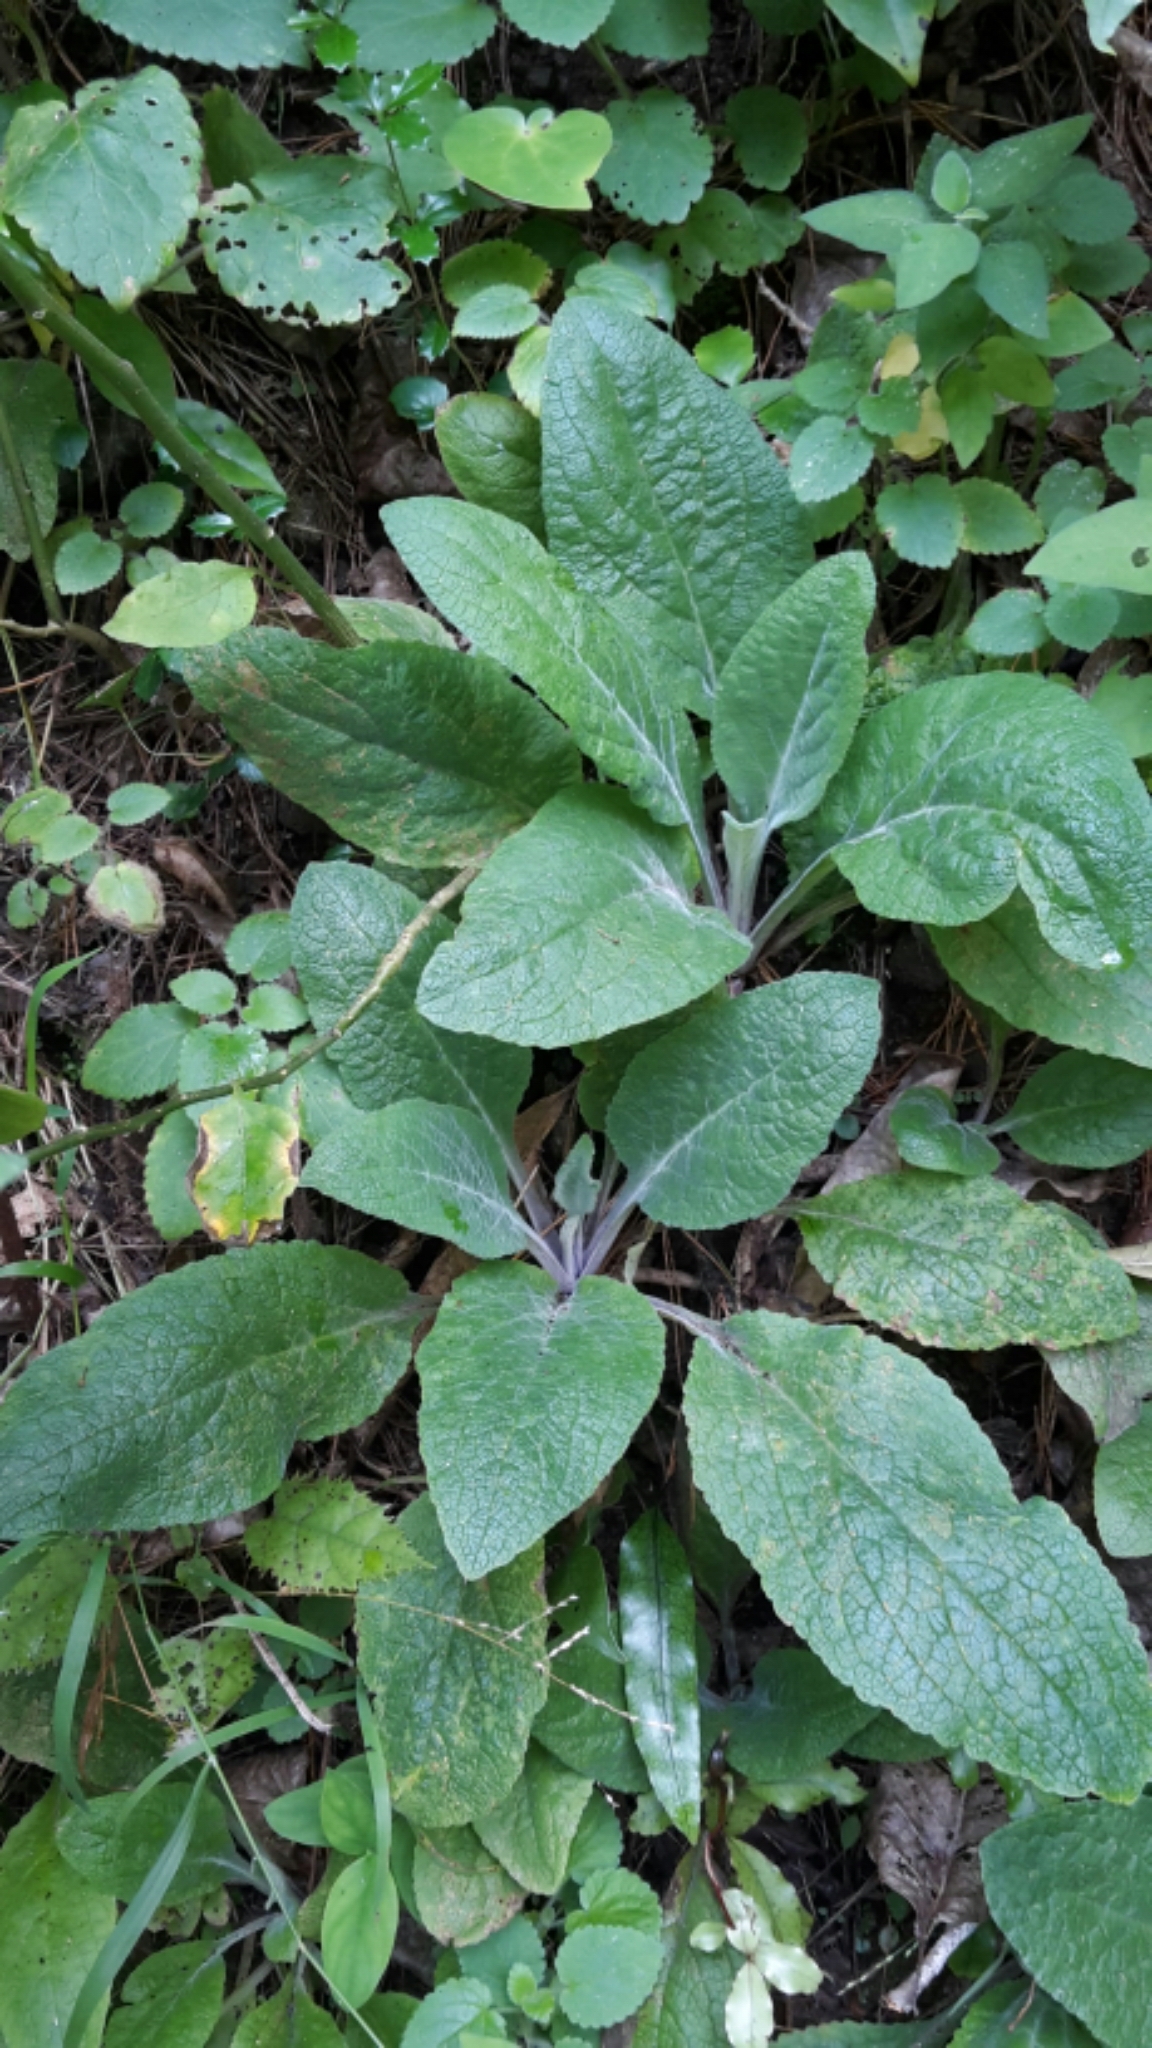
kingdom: Plantae
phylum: Tracheophyta
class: Magnoliopsida
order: Lamiales
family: Plantaginaceae
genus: Digitalis
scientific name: Digitalis purpurea
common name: Foxglove
